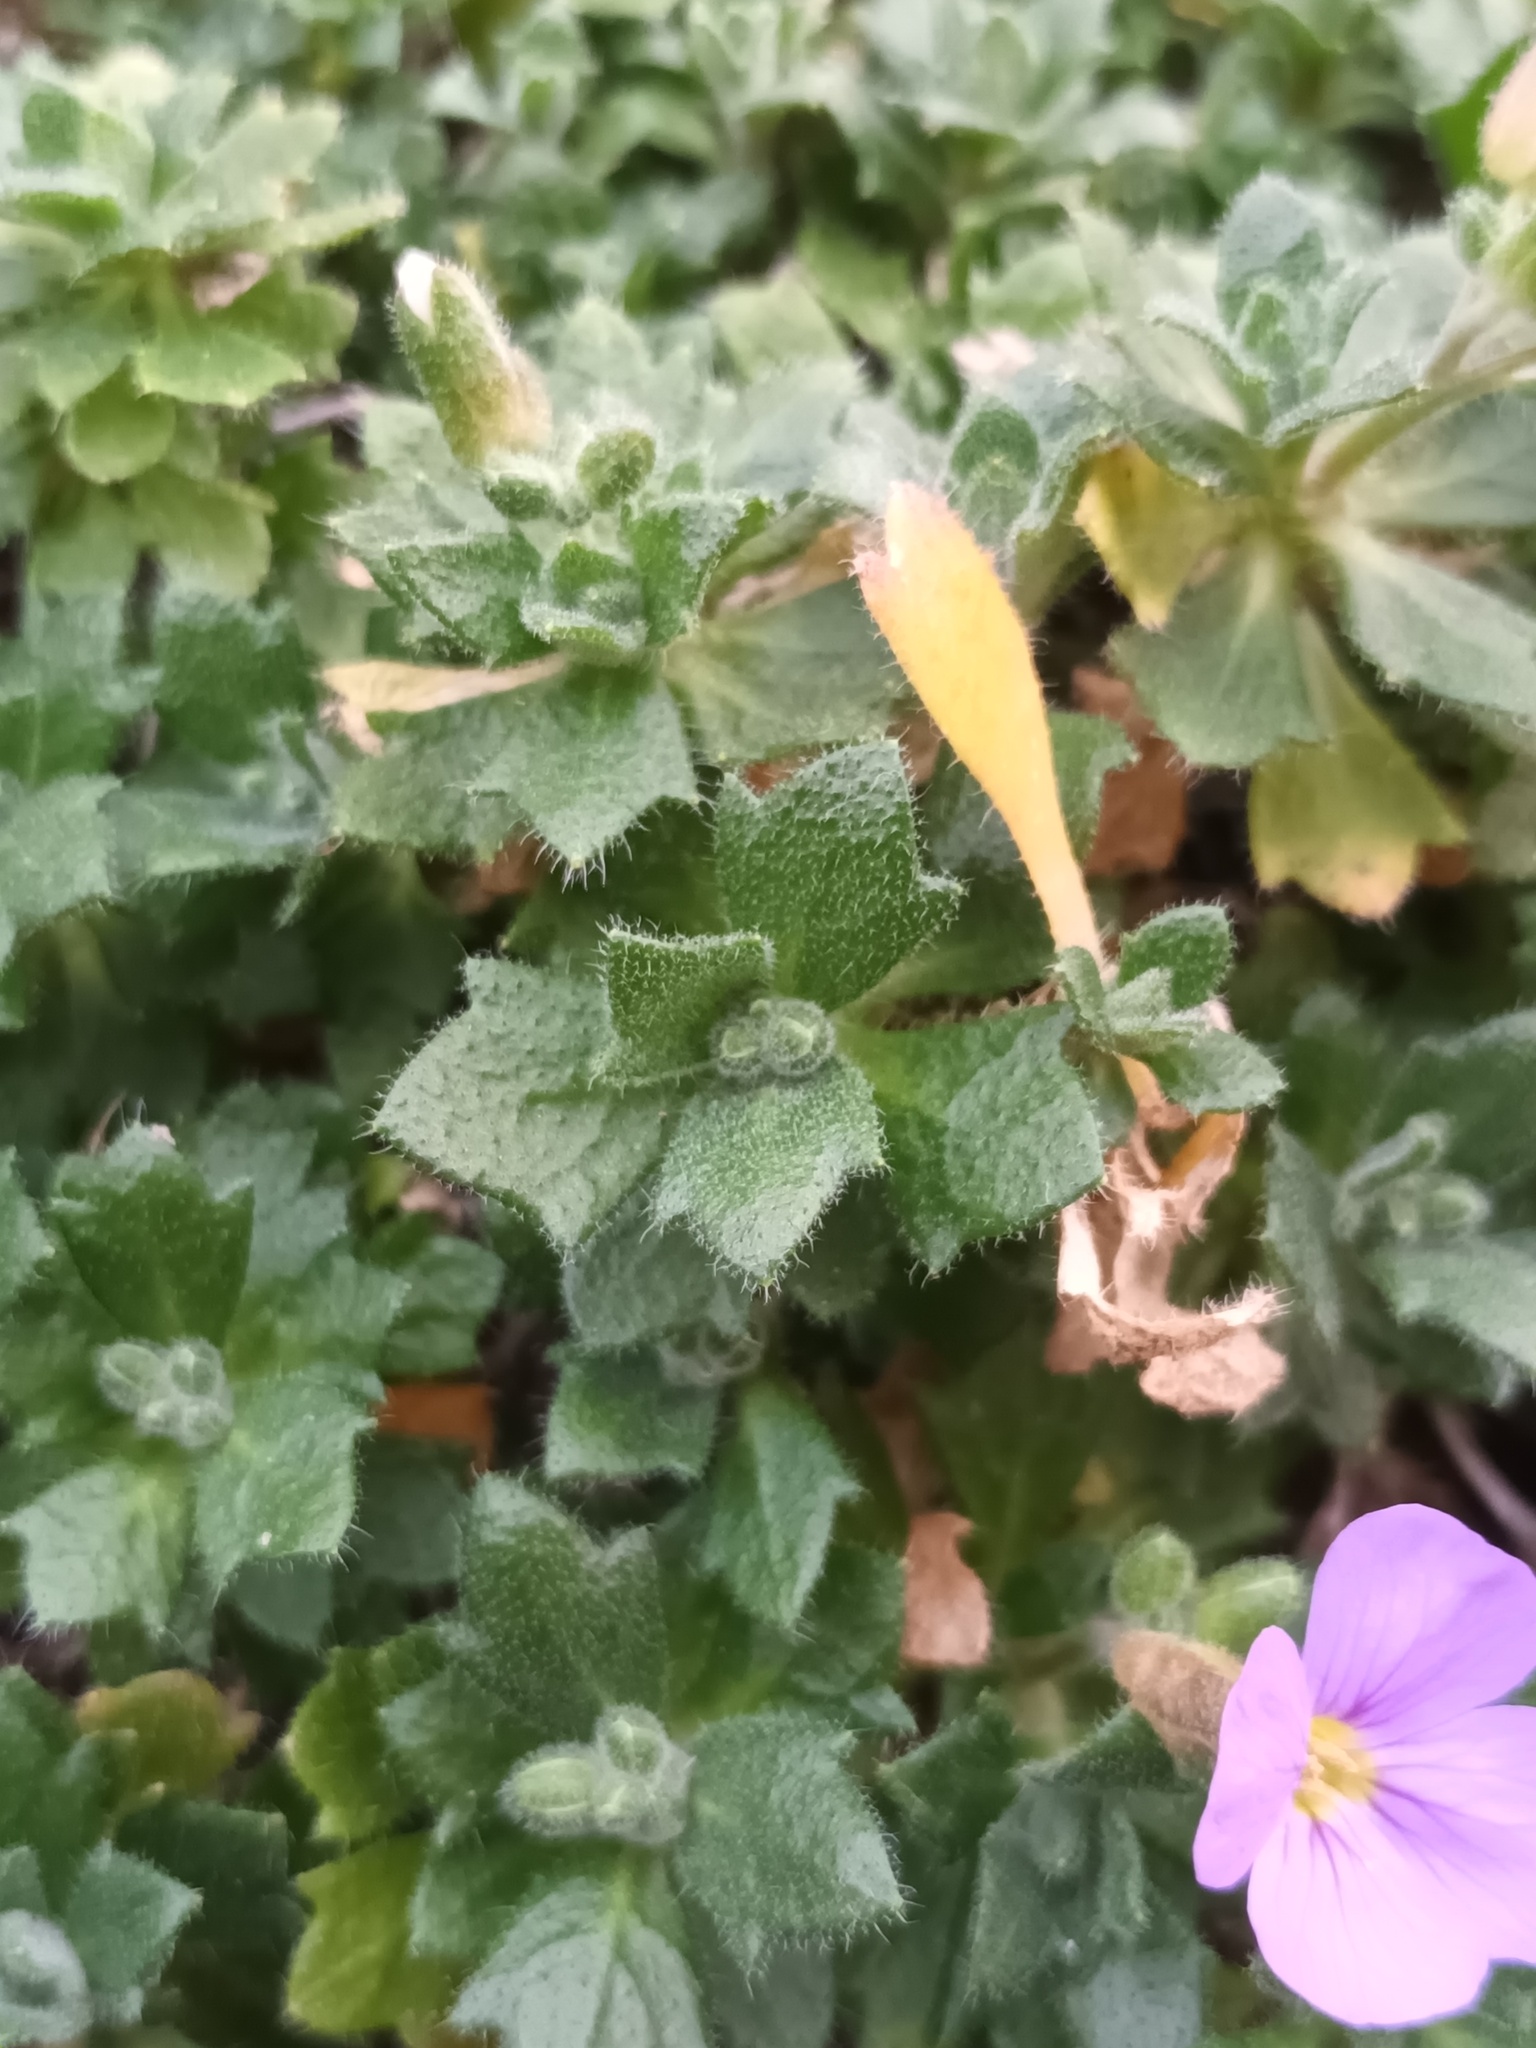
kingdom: Plantae
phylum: Tracheophyta
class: Magnoliopsida
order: Brassicales
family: Brassicaceae
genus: Aubrieta
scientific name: Aubrieta deltoidea
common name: Aubretia
